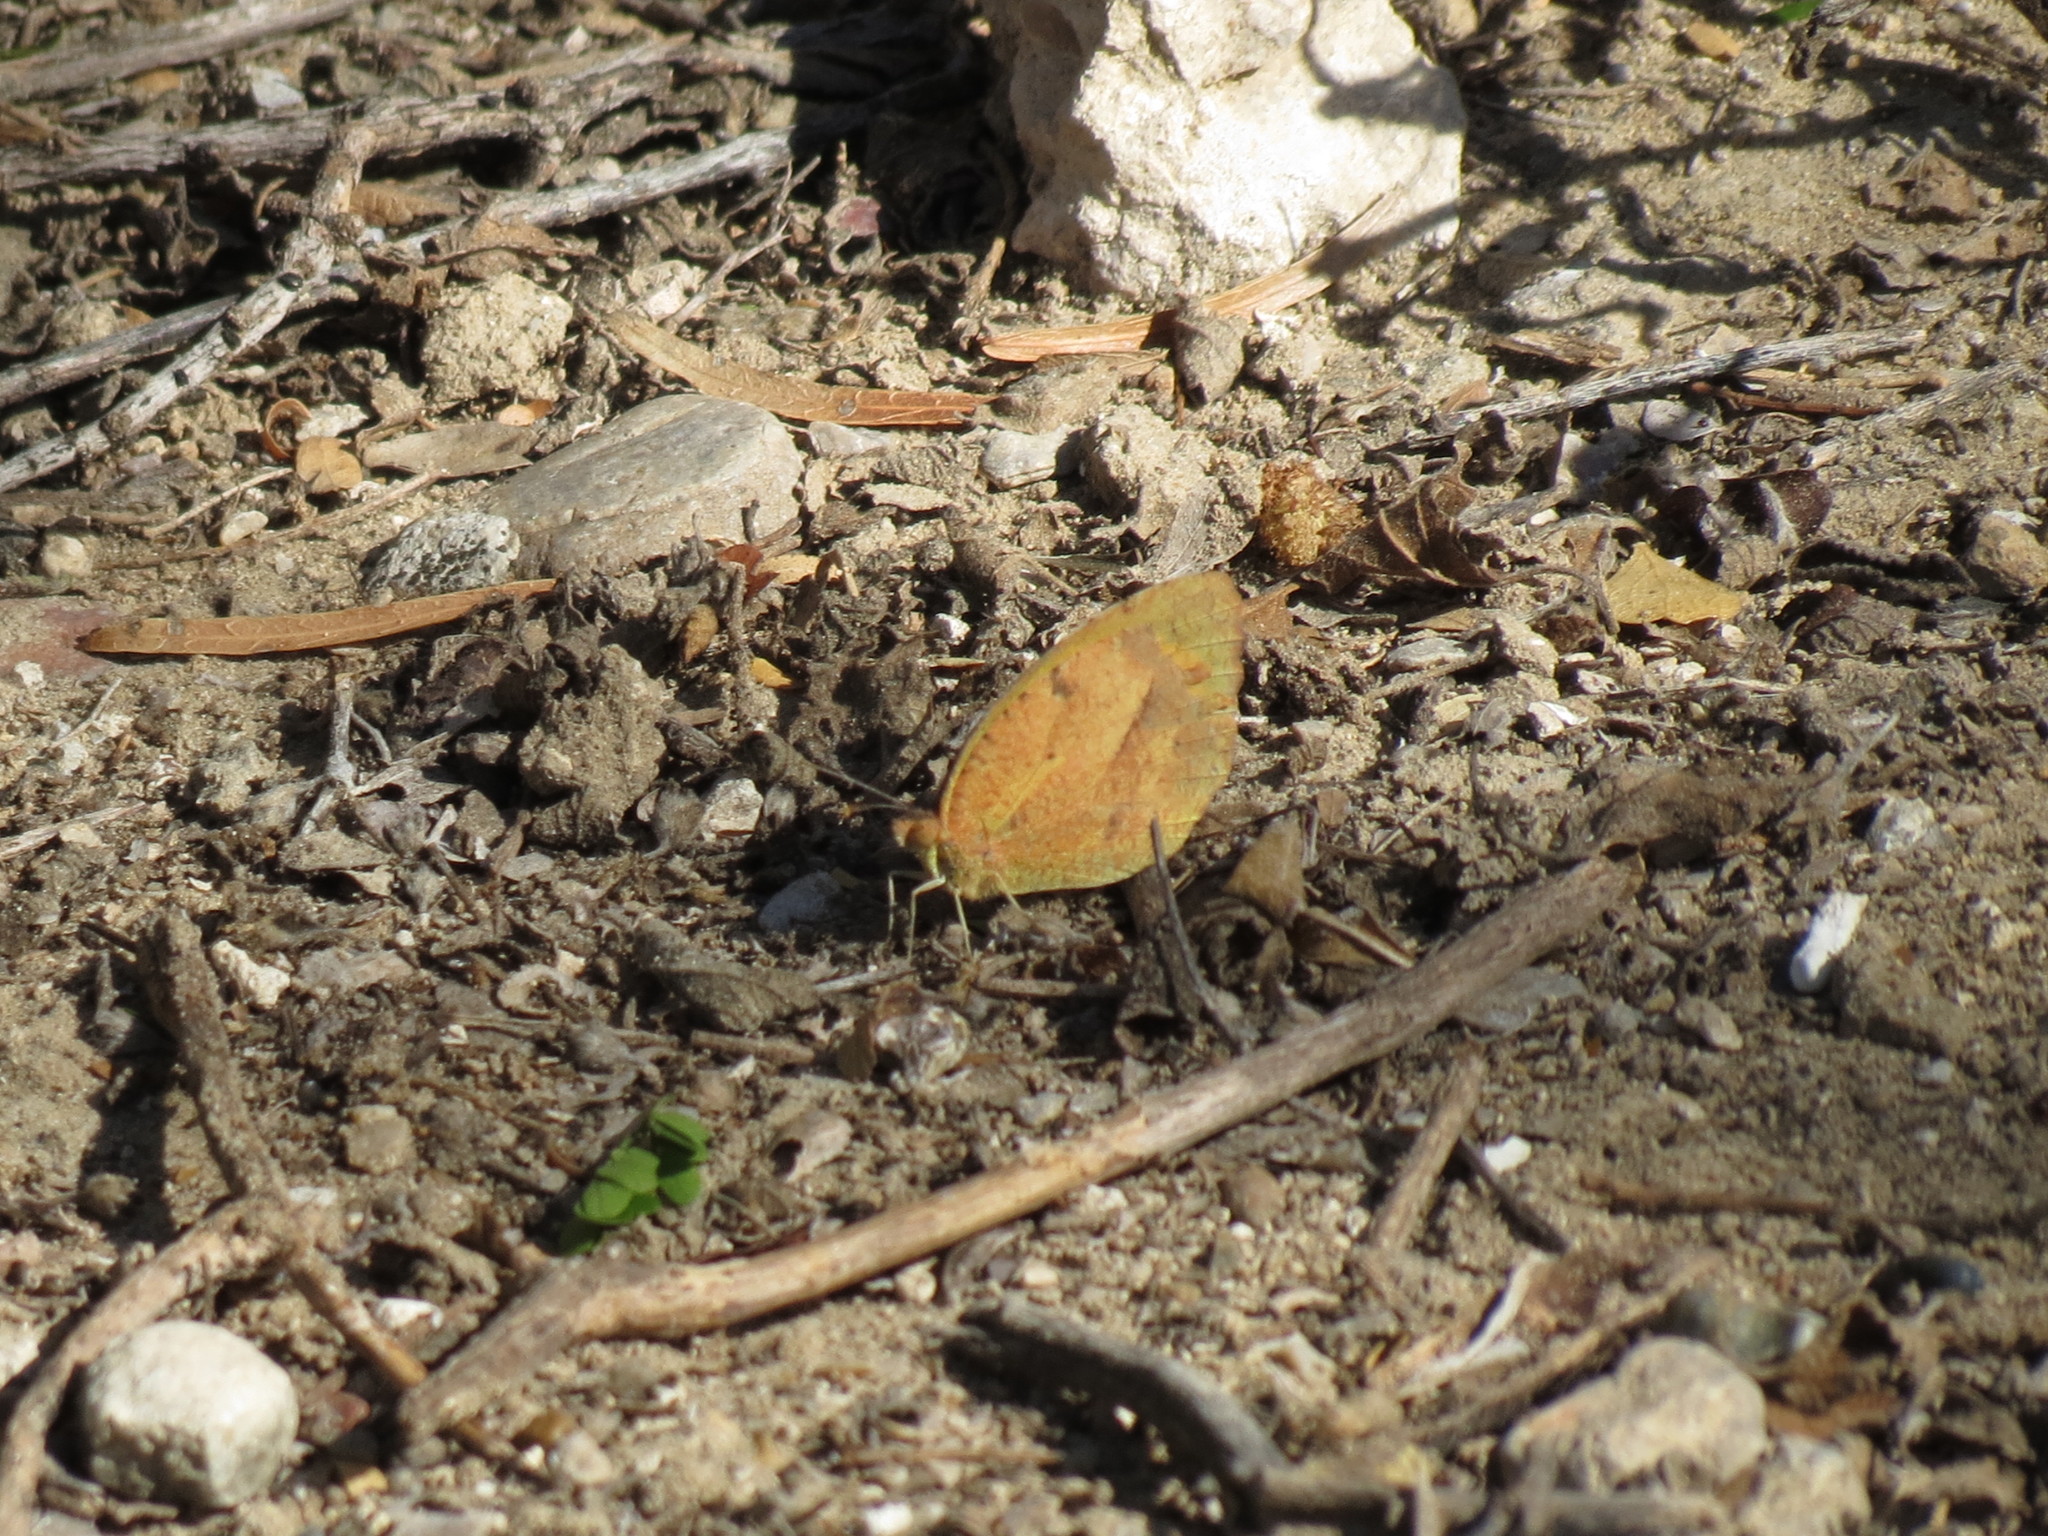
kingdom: Animalia
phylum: Arthropoda
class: Insecta
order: Lepidoptera
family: Pieridae
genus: Abaeis
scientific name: Abaeis nicippe
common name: Sleepy orange
